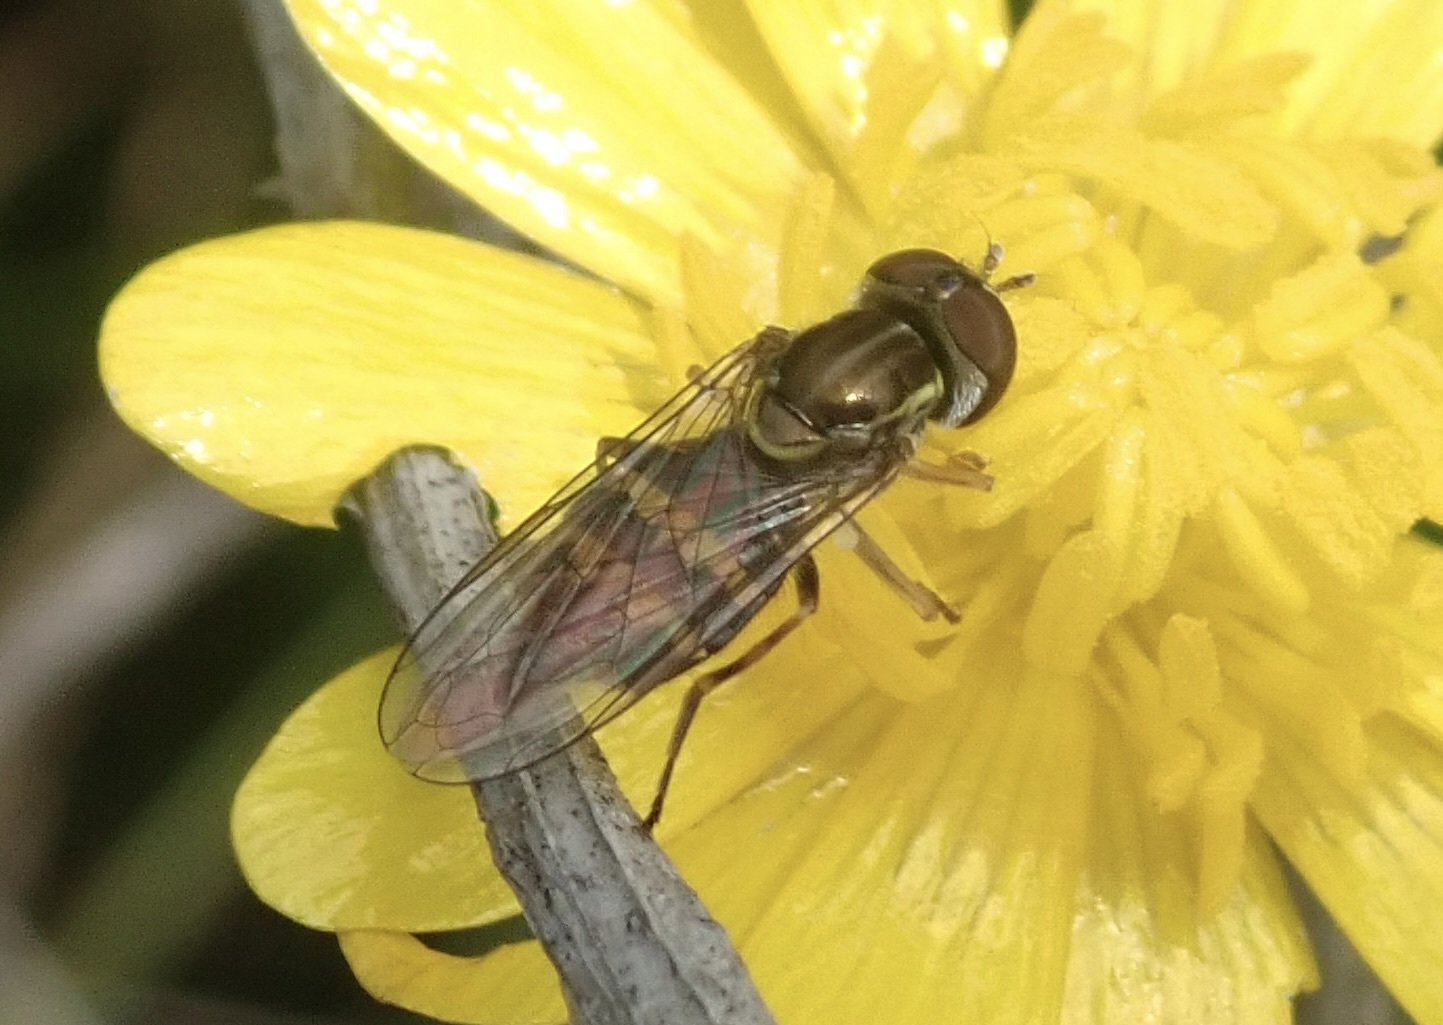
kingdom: Animalia
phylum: Arthropoda
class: Insecta
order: Diptera
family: Syrphidae
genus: Toxomerus
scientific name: Toxomerus occidentalis
